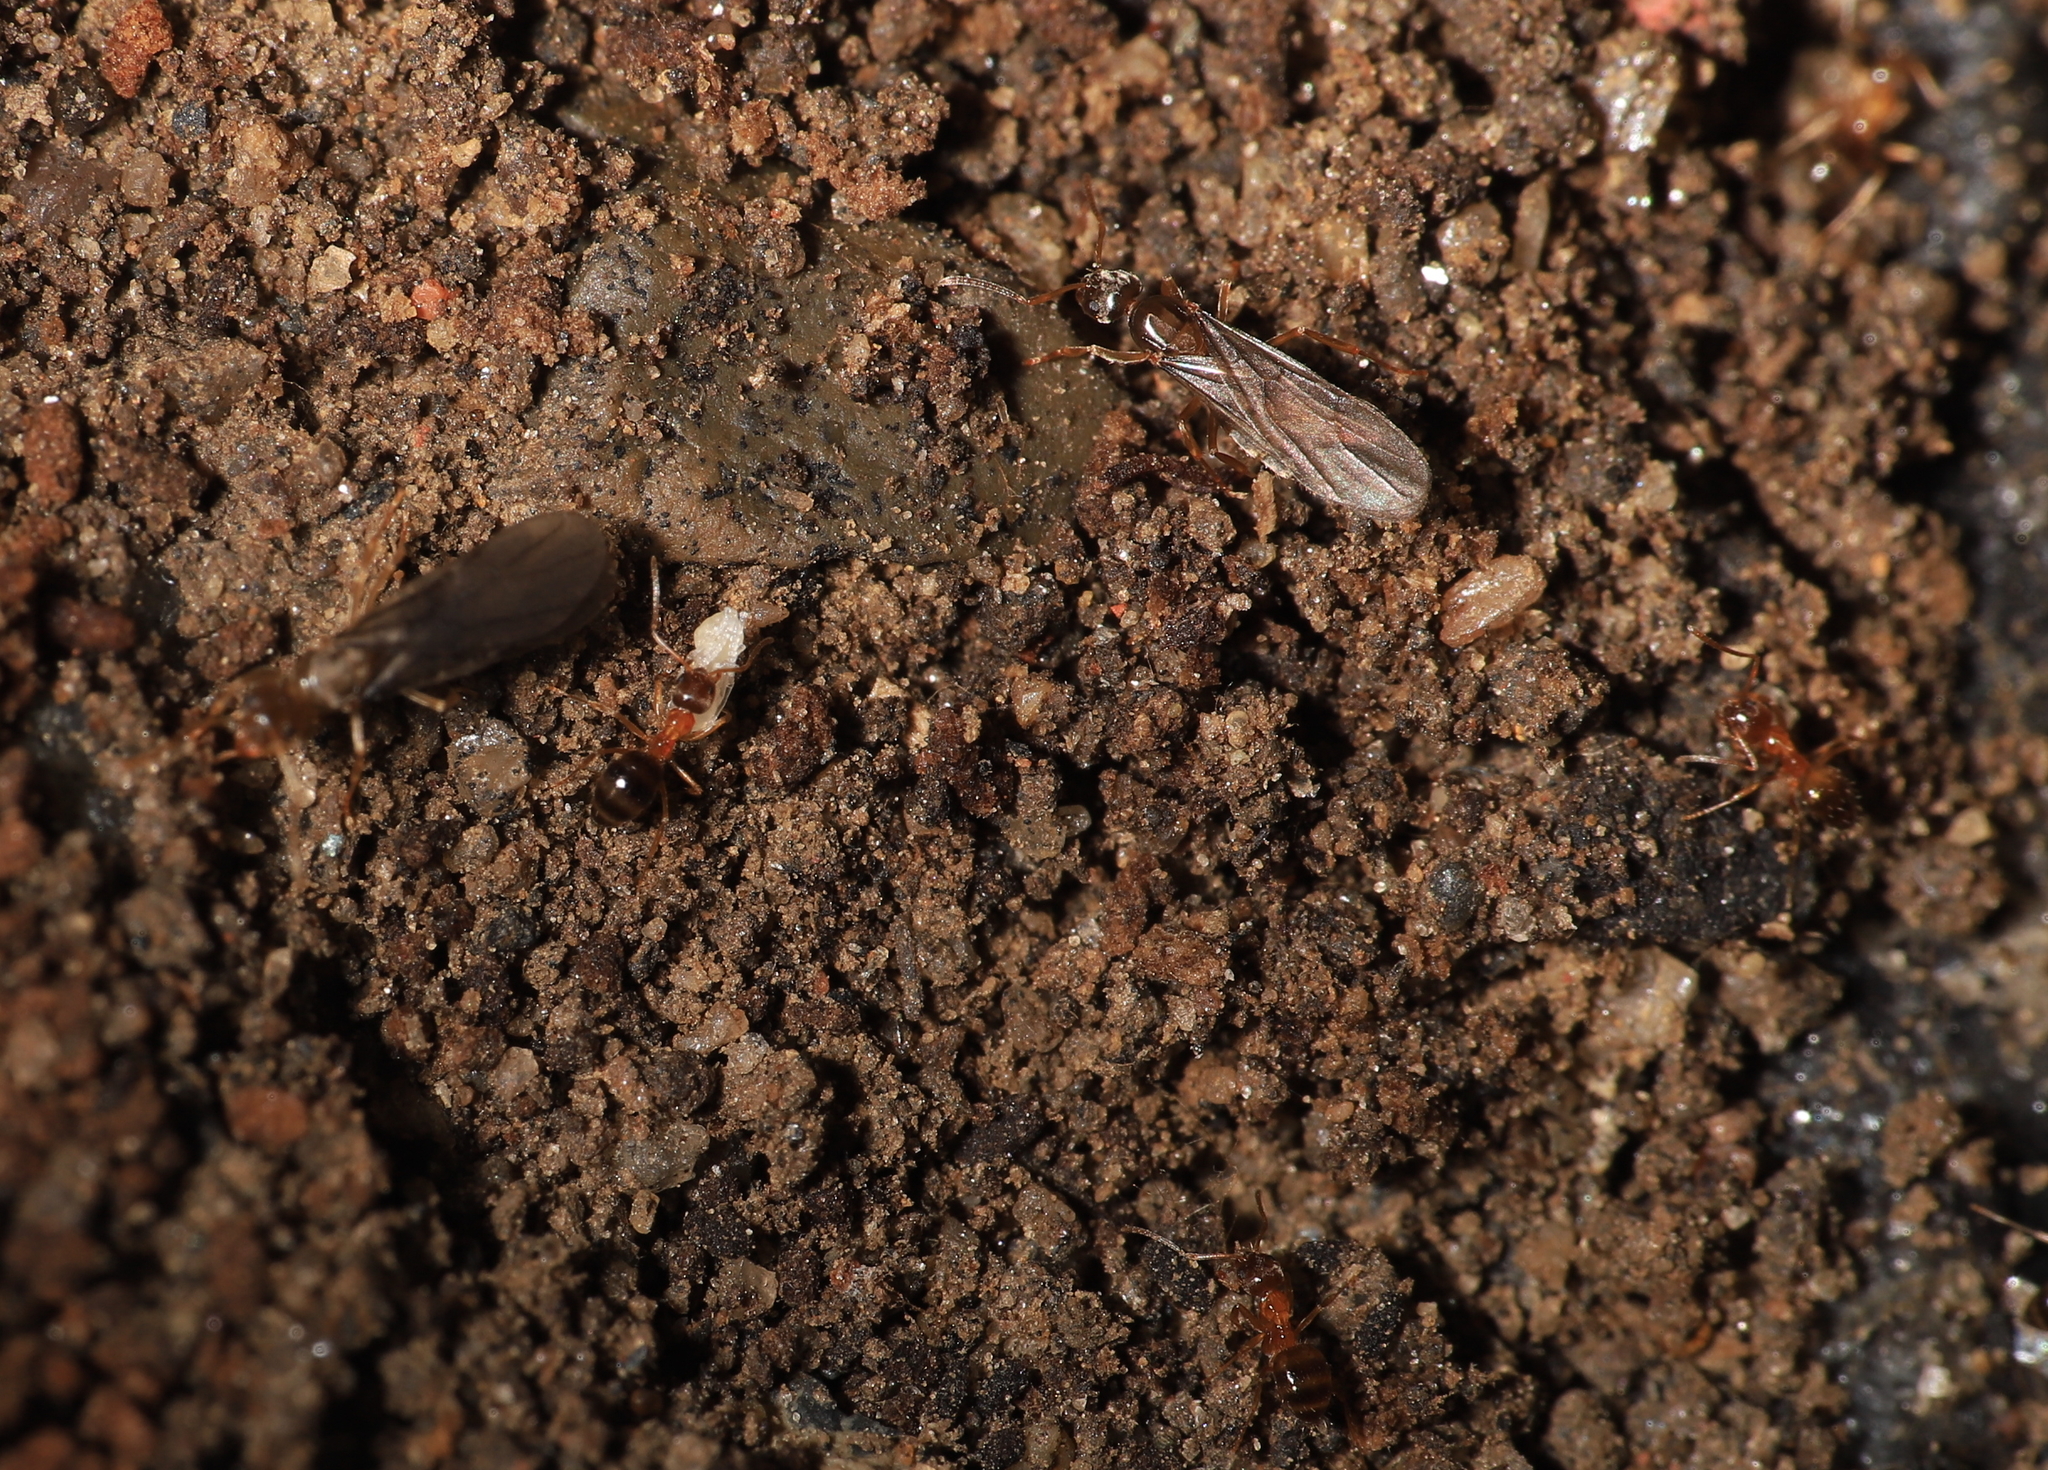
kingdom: Animalia
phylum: Arthropoda
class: Insecta
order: Hymenoptera
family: Formicidae
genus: Paratrechina
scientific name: Paratrechina flavipes
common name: Eastern asian formicine ant
